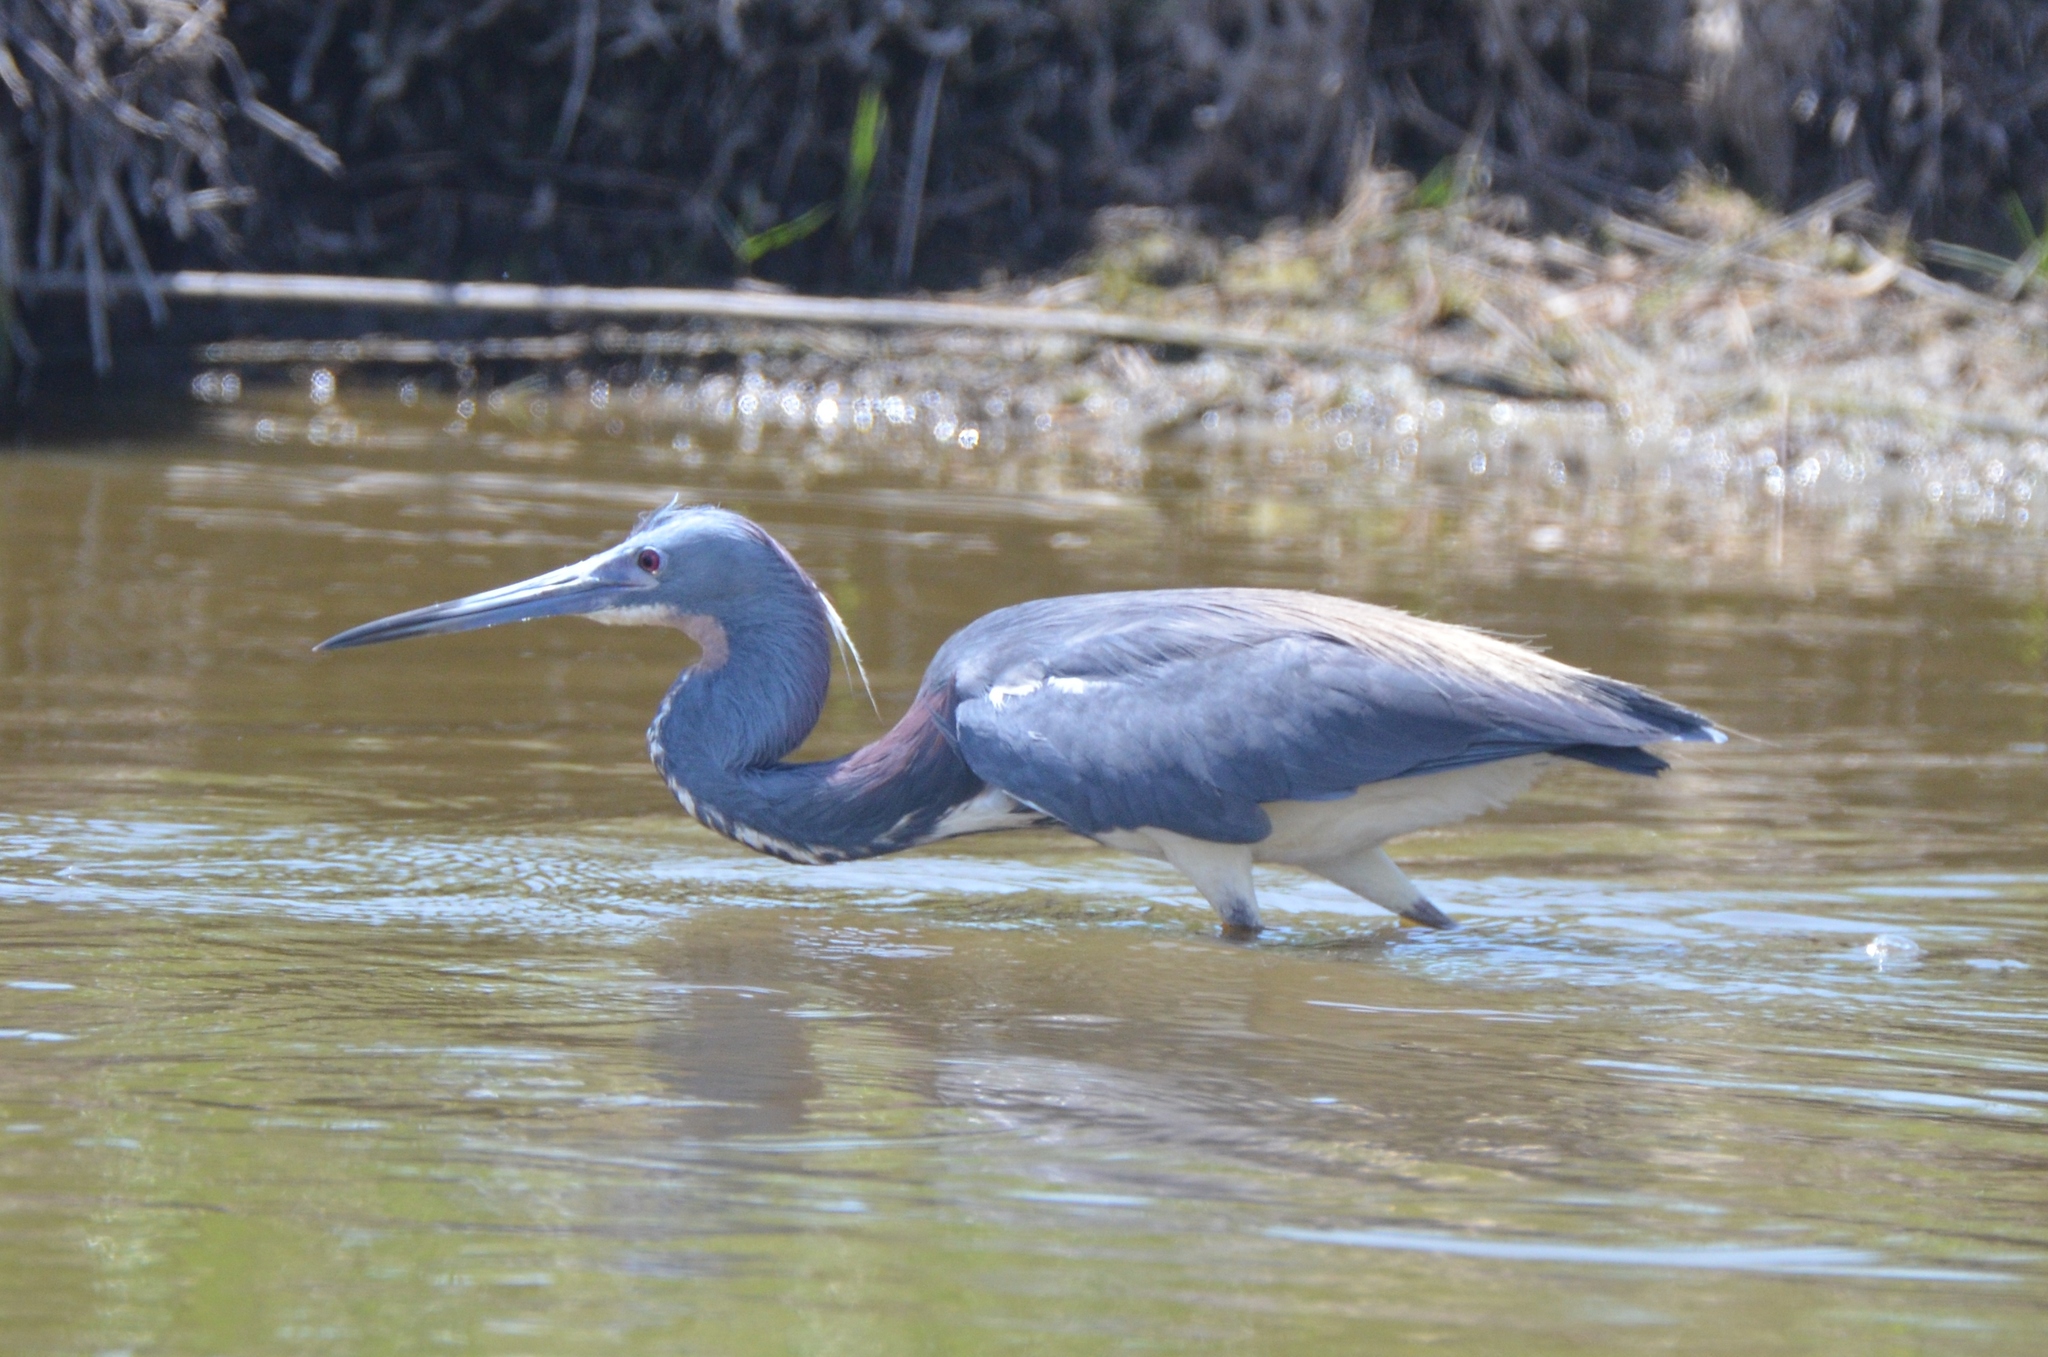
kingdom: Animalia
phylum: Chordata
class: Aves
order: Pelecaniformes
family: Ardeidae
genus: Egretta
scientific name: Egretta tricolor
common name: Tricolored heron
